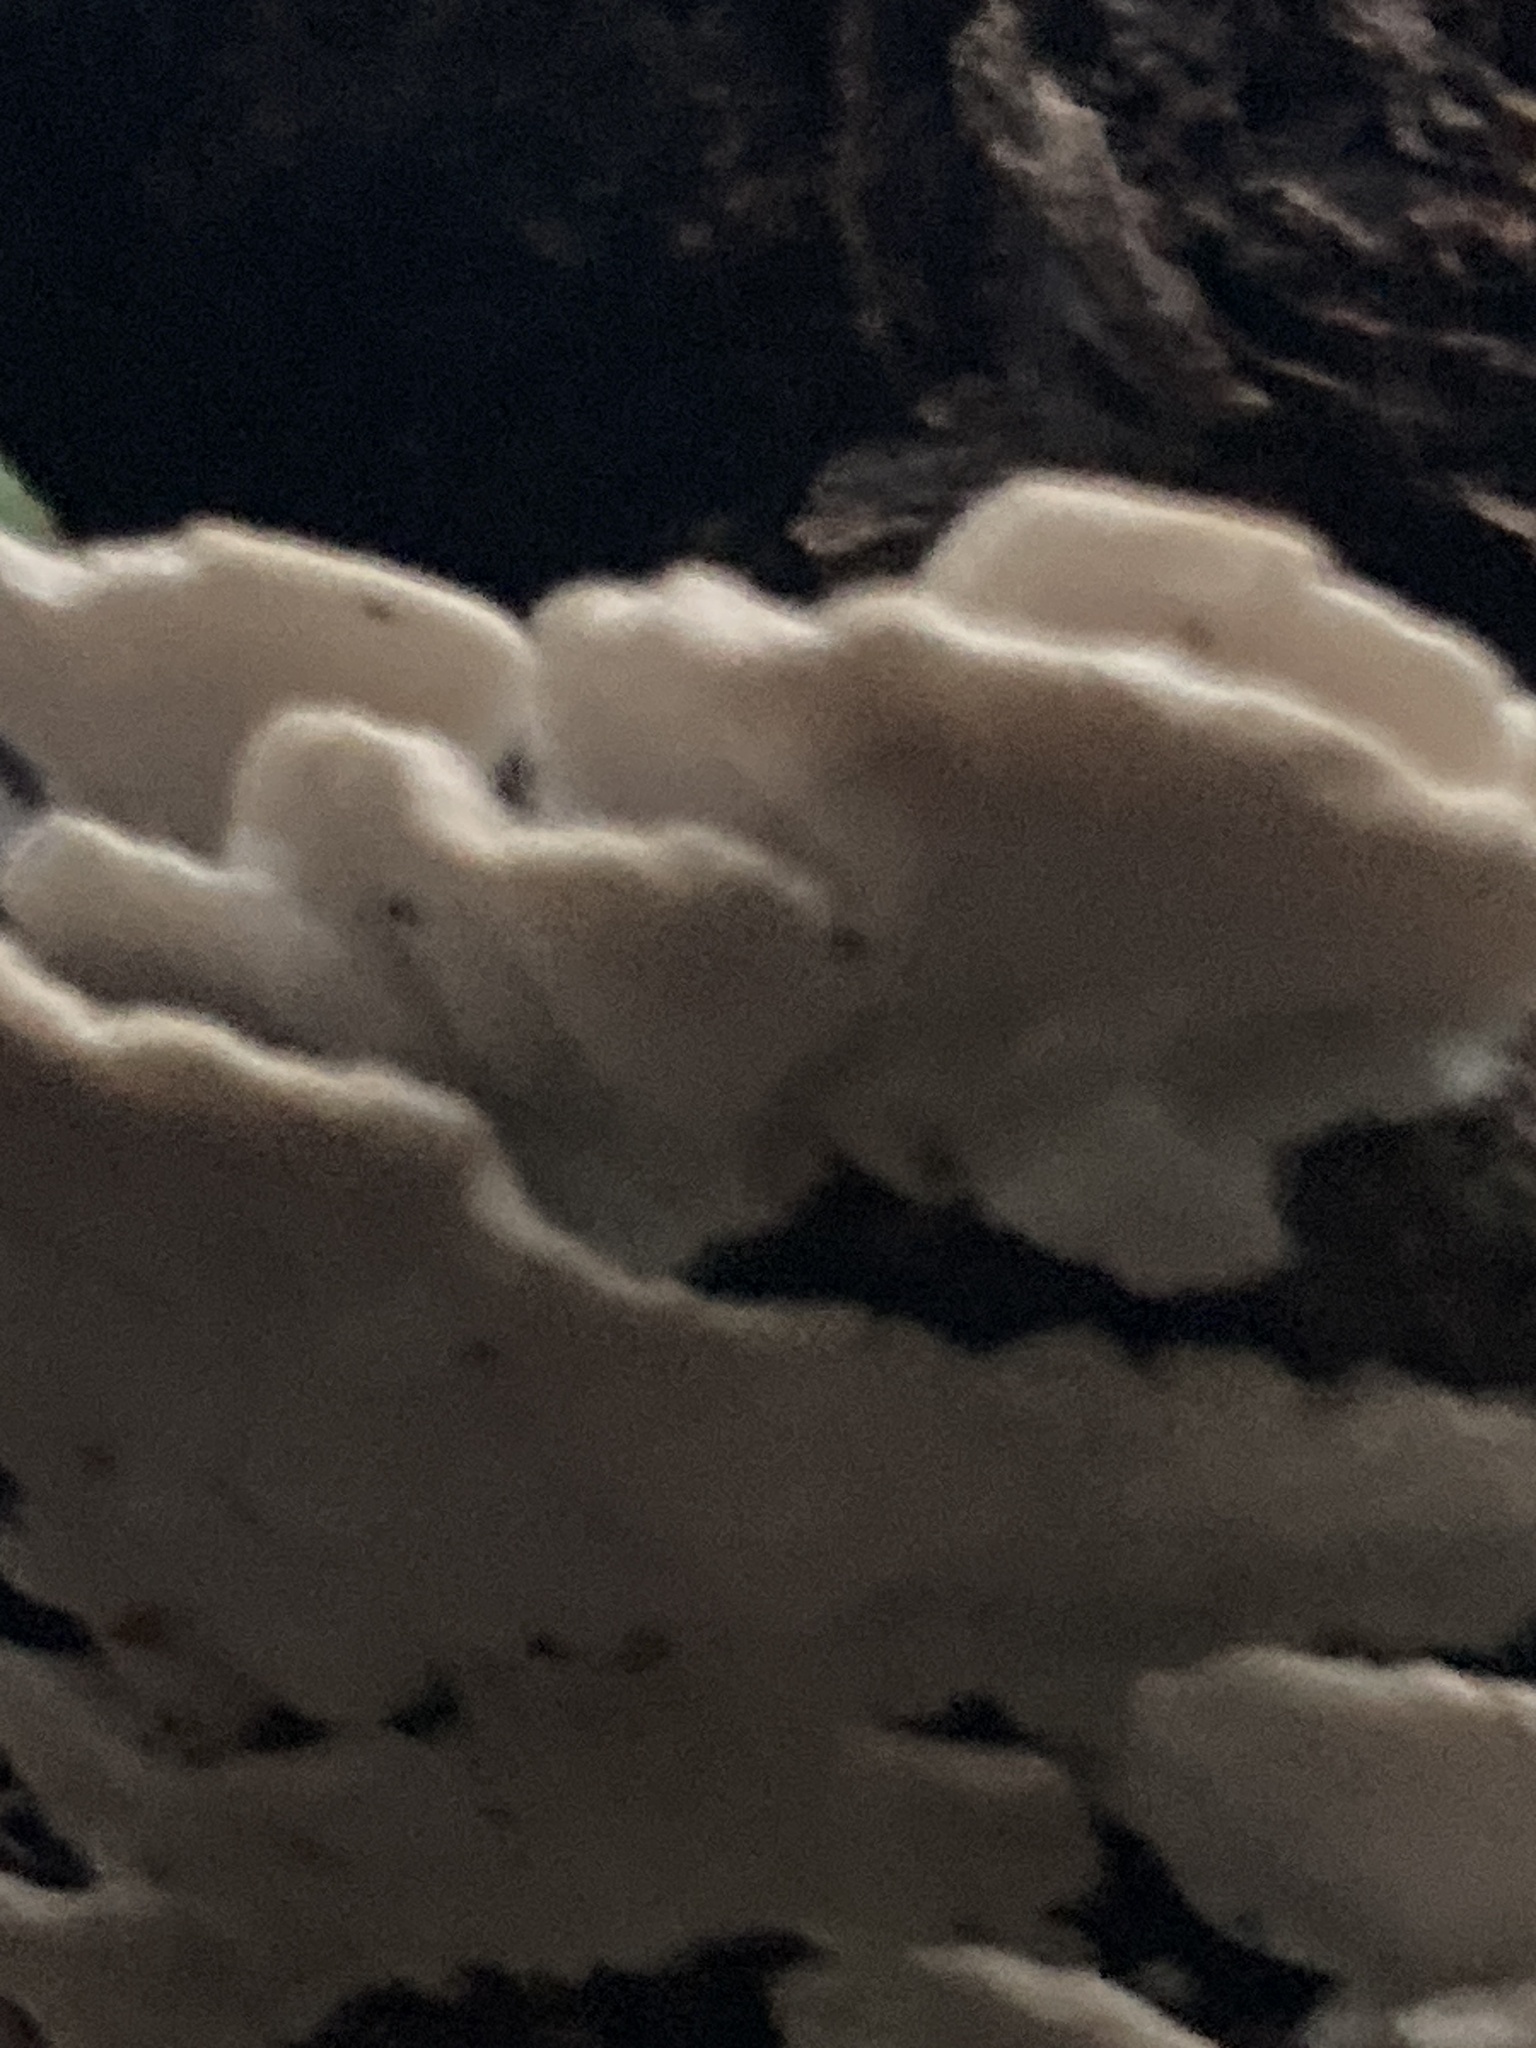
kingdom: Fungi
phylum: Basidiomycota
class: Agaricomycetes
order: Polyporales
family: Polyporaceae
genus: Trametes
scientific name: Trametes versicolor
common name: Turkeytail
